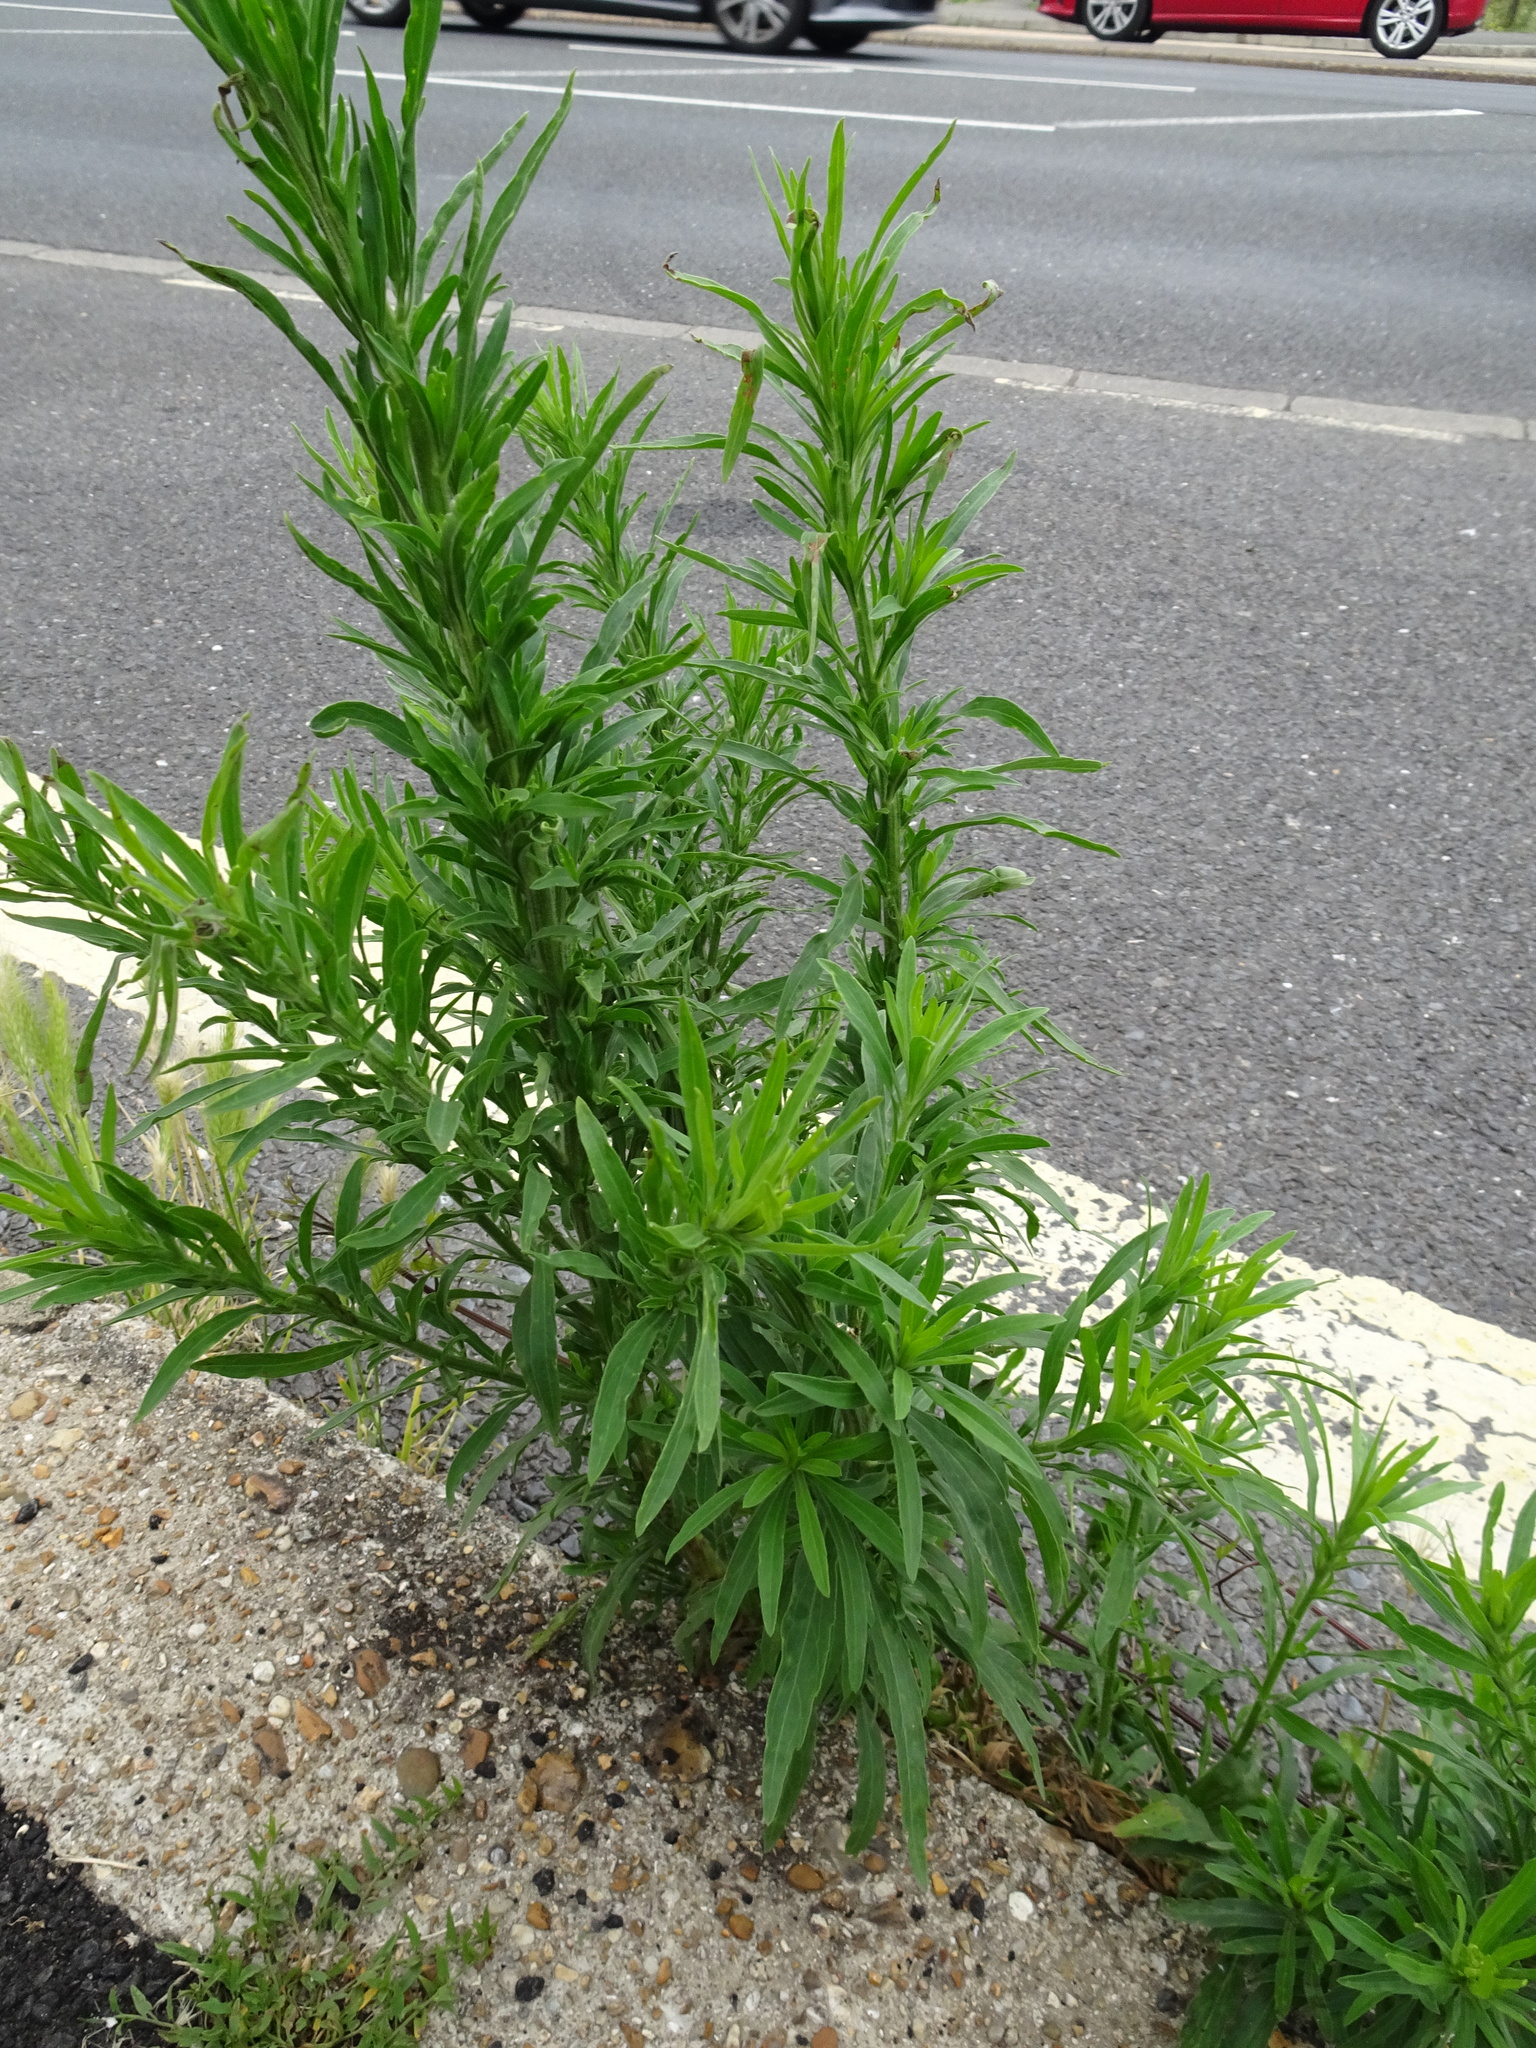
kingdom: Plantae
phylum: Tracheophyta
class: Magnoliopsida
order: Asterales
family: Asteraceae
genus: Erigeron
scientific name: Erigeron sumatrensis
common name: Daisy
